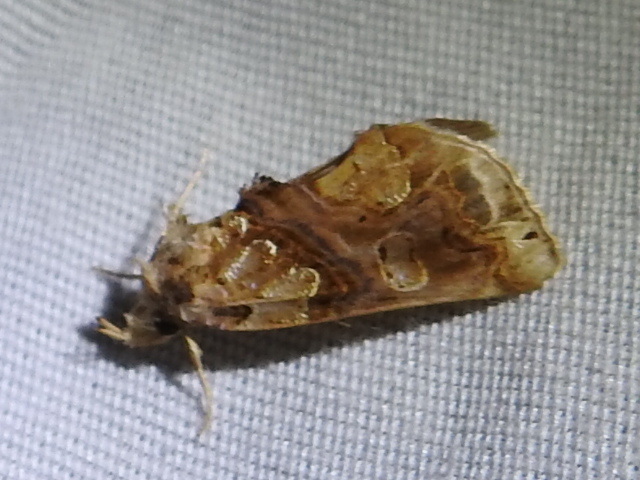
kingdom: Animalia
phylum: Arthropoda
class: Insecta
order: Lepidoptera
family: Erebidae
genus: Plusiodonta
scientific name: Plusiodonta compressipalpis
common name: Moonseed moth
